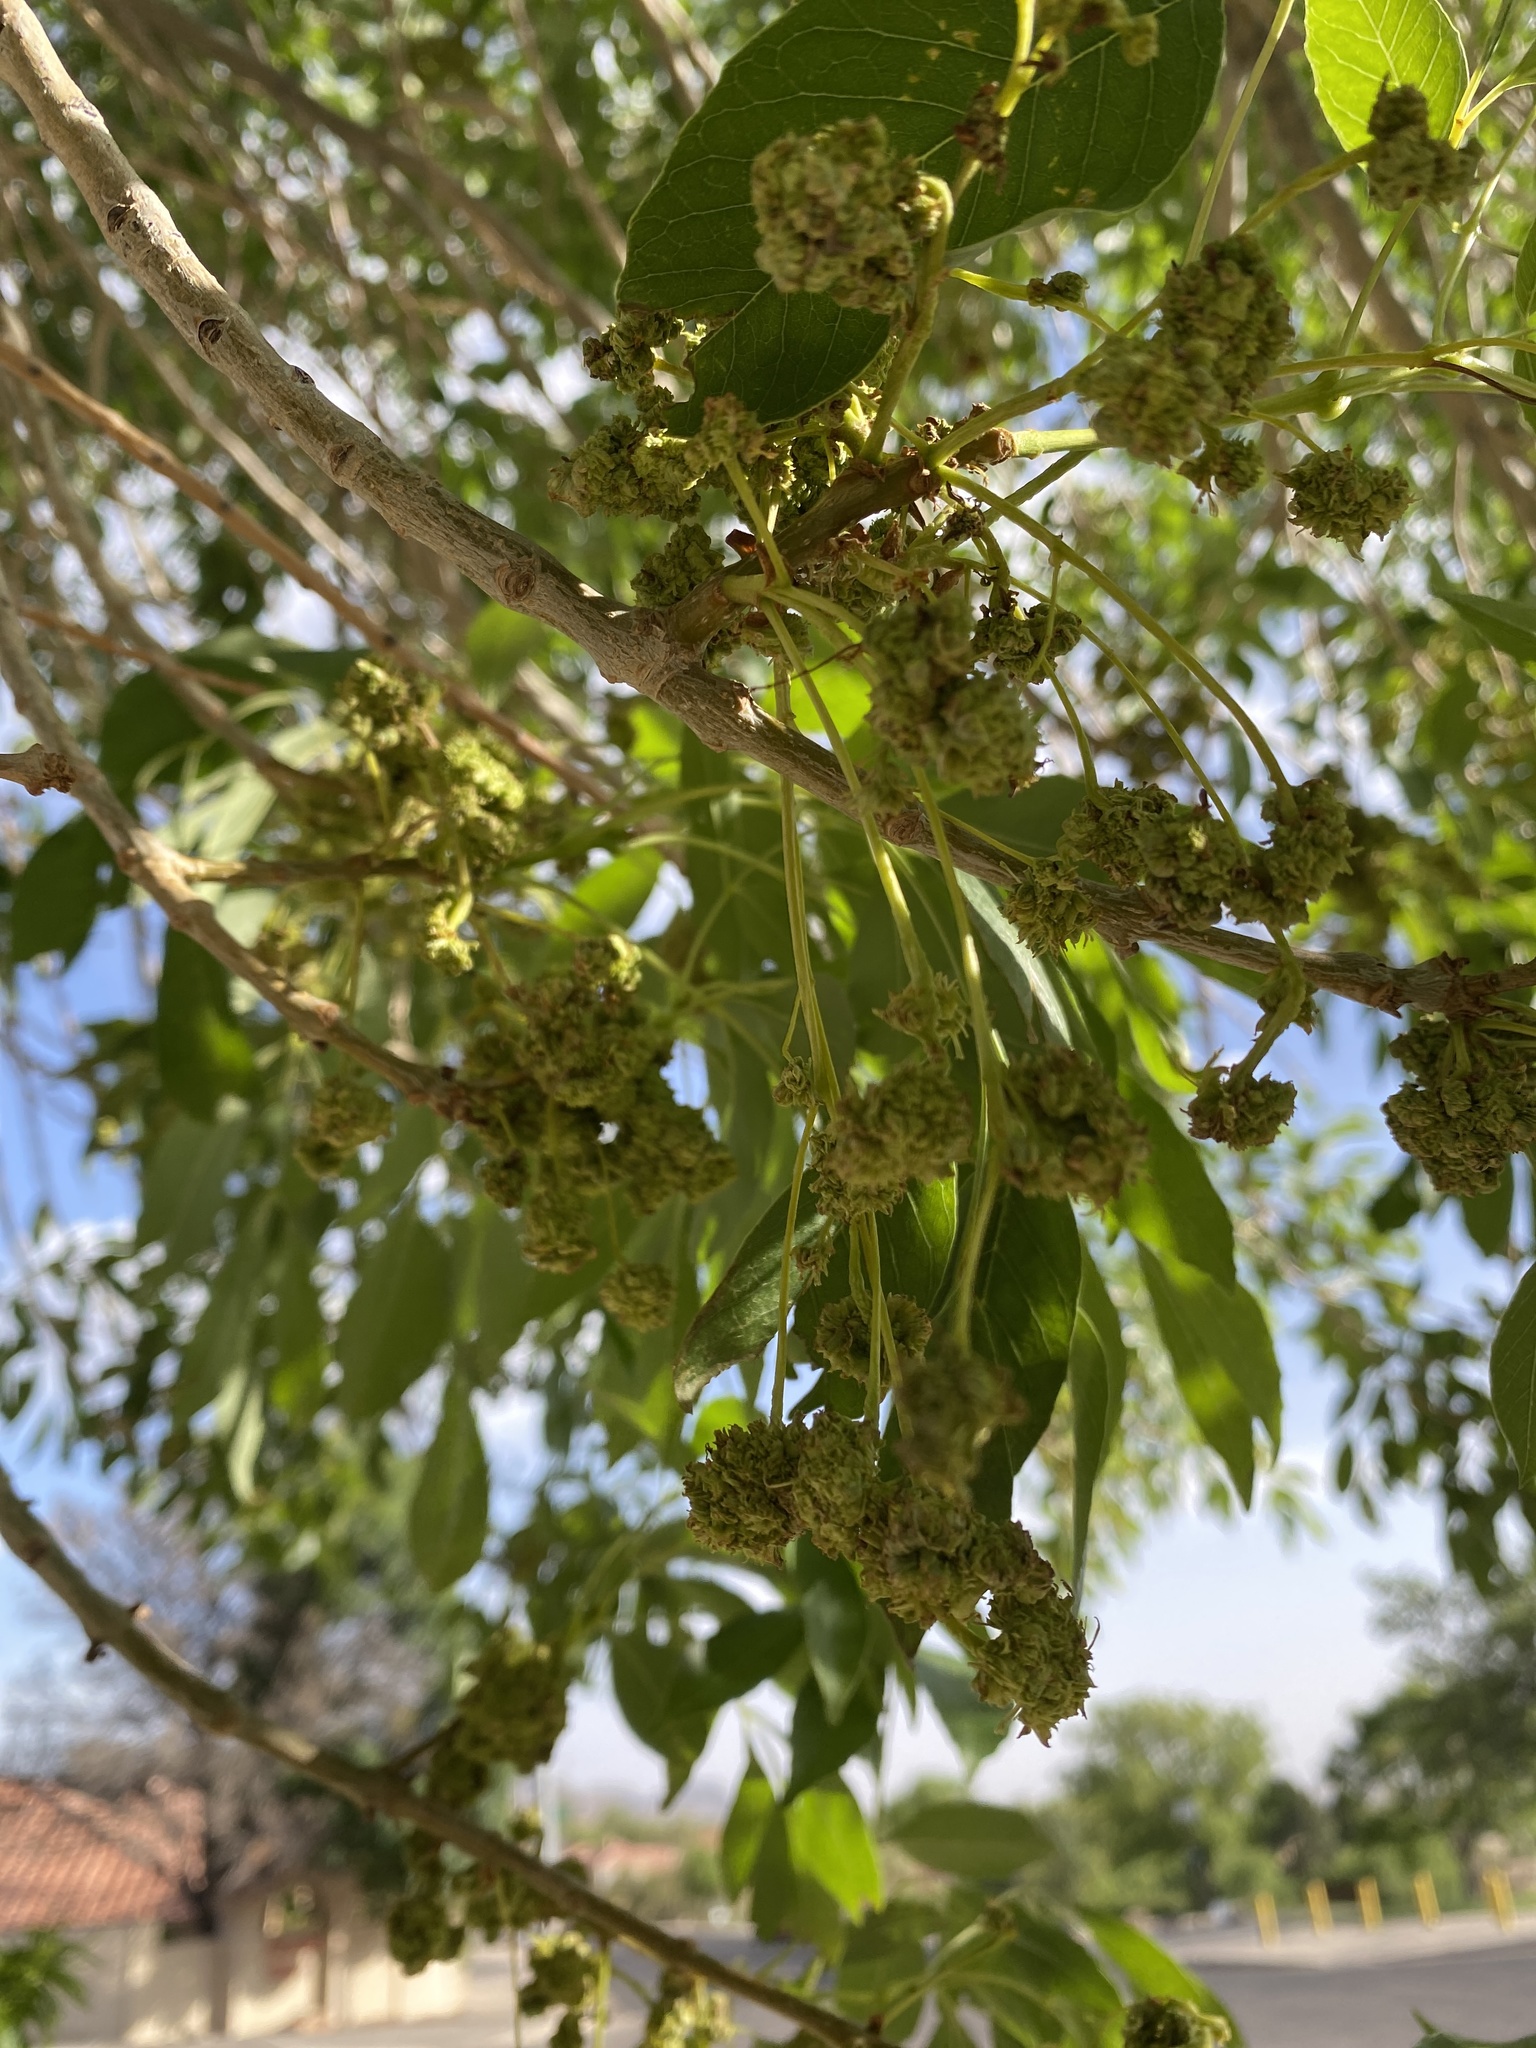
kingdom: Animalia
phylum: Arthropoda
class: Arachnida
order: Trombidiformes
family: Eriophyidae
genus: Aceria
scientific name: Aceria fraxiniflora
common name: Ash flower gall mite
